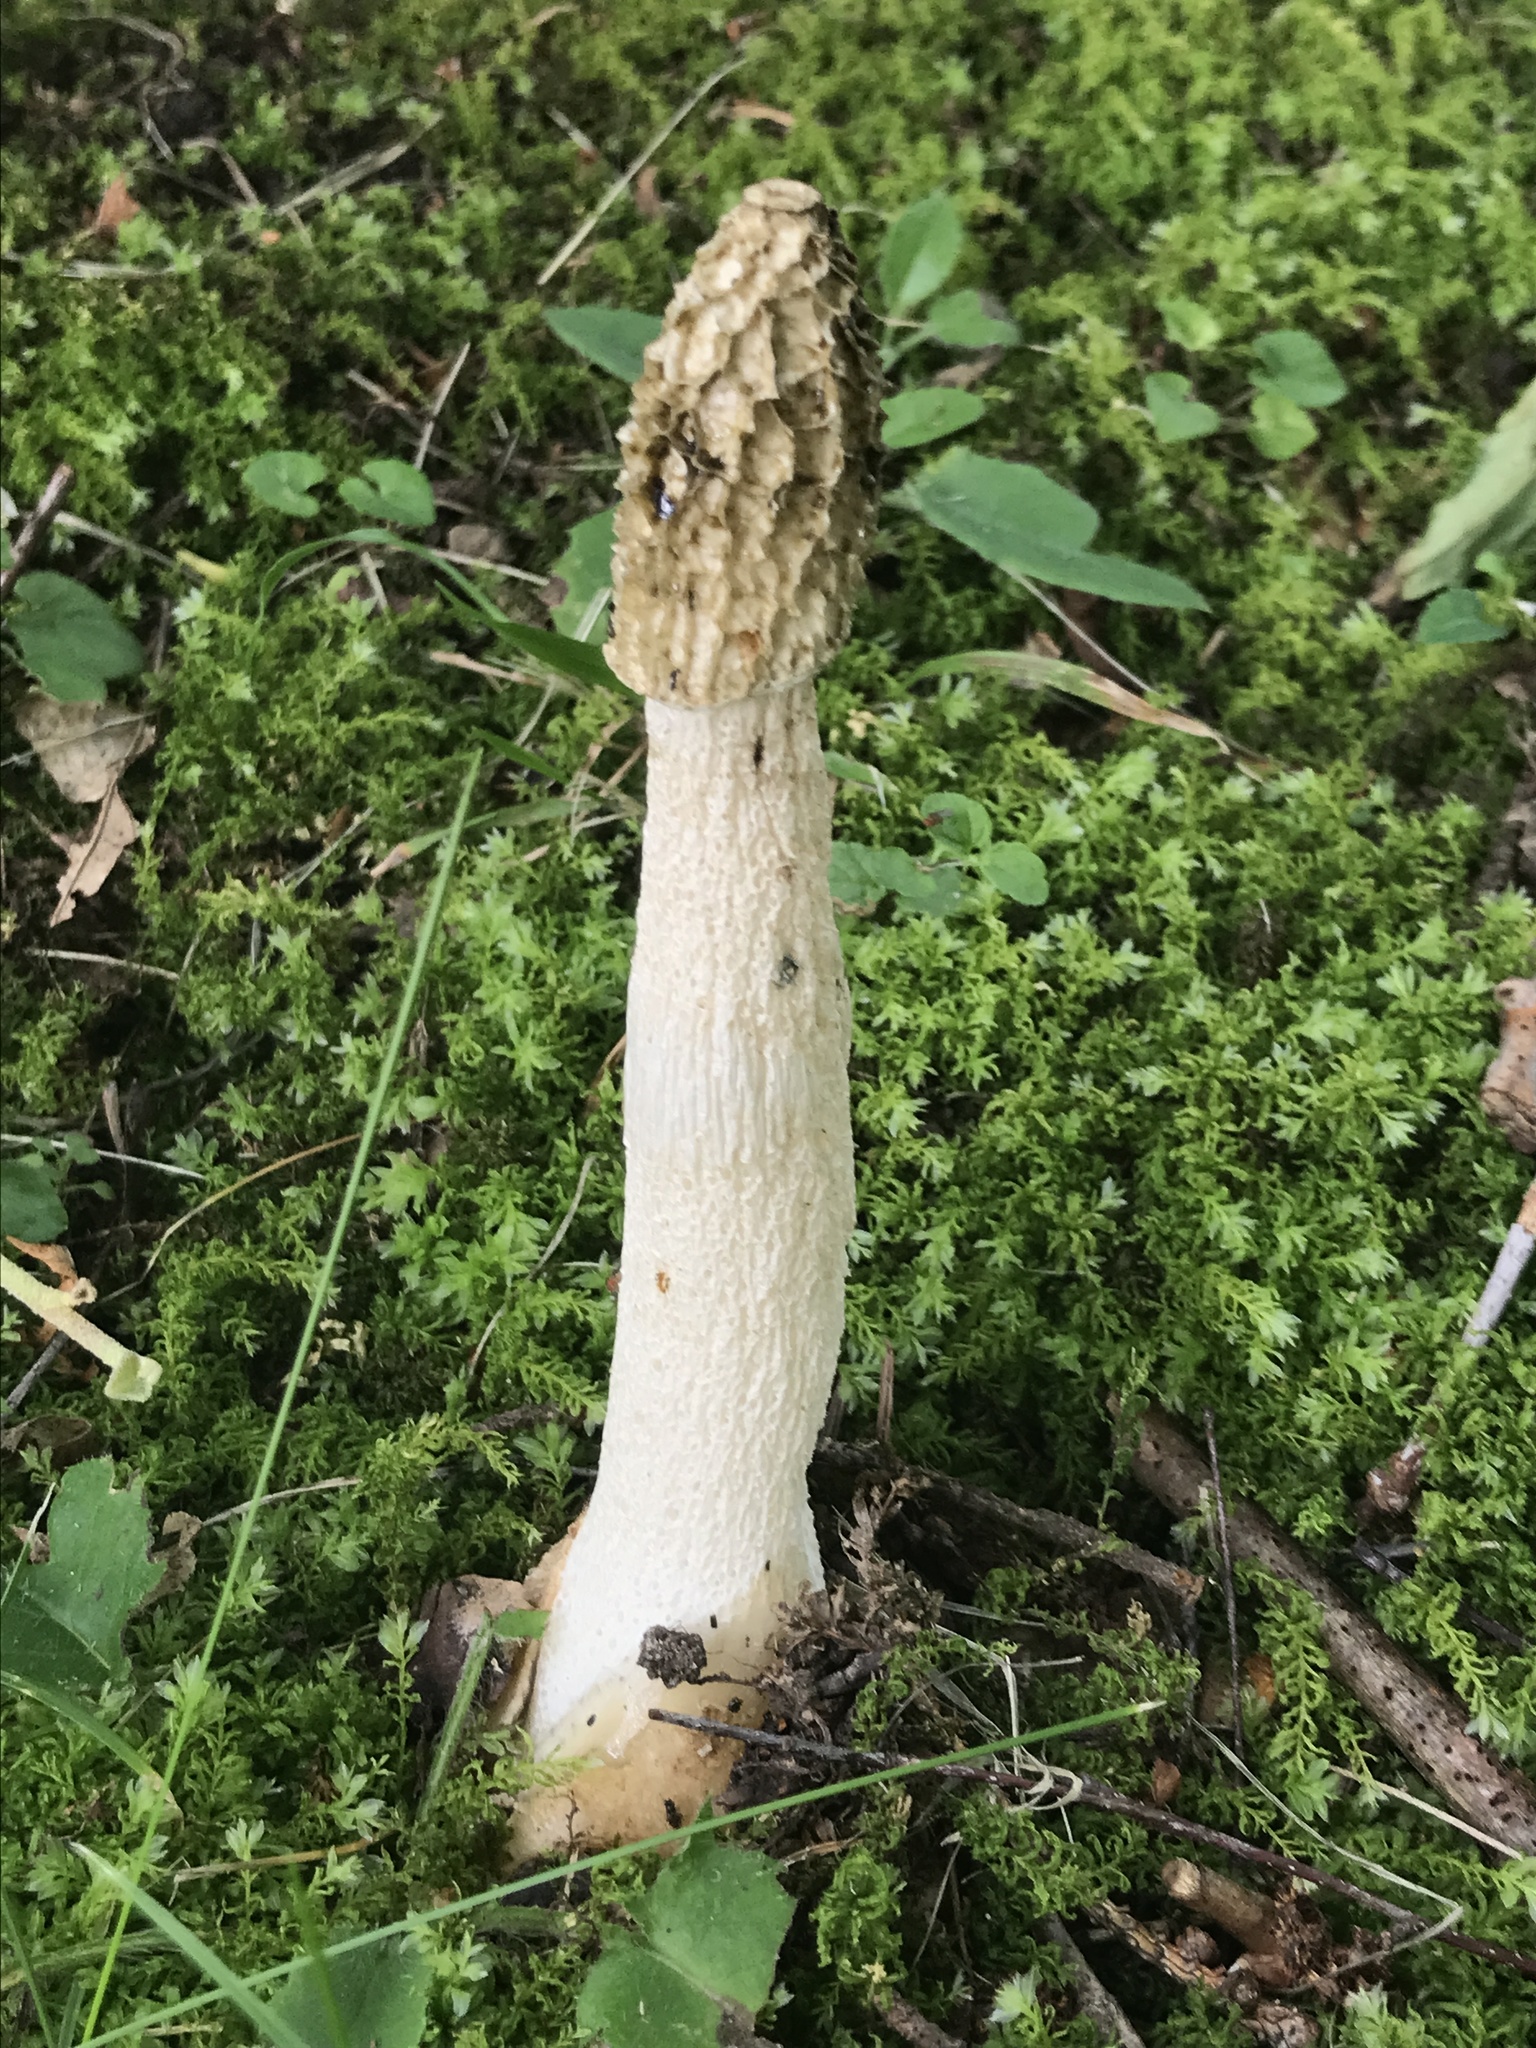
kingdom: Fungi
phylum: Basidiomycota
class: Agaricomycetes
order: Phallales
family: Phallaceae
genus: Phallus
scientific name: Phallus impudicus
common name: Common stinkhorn
